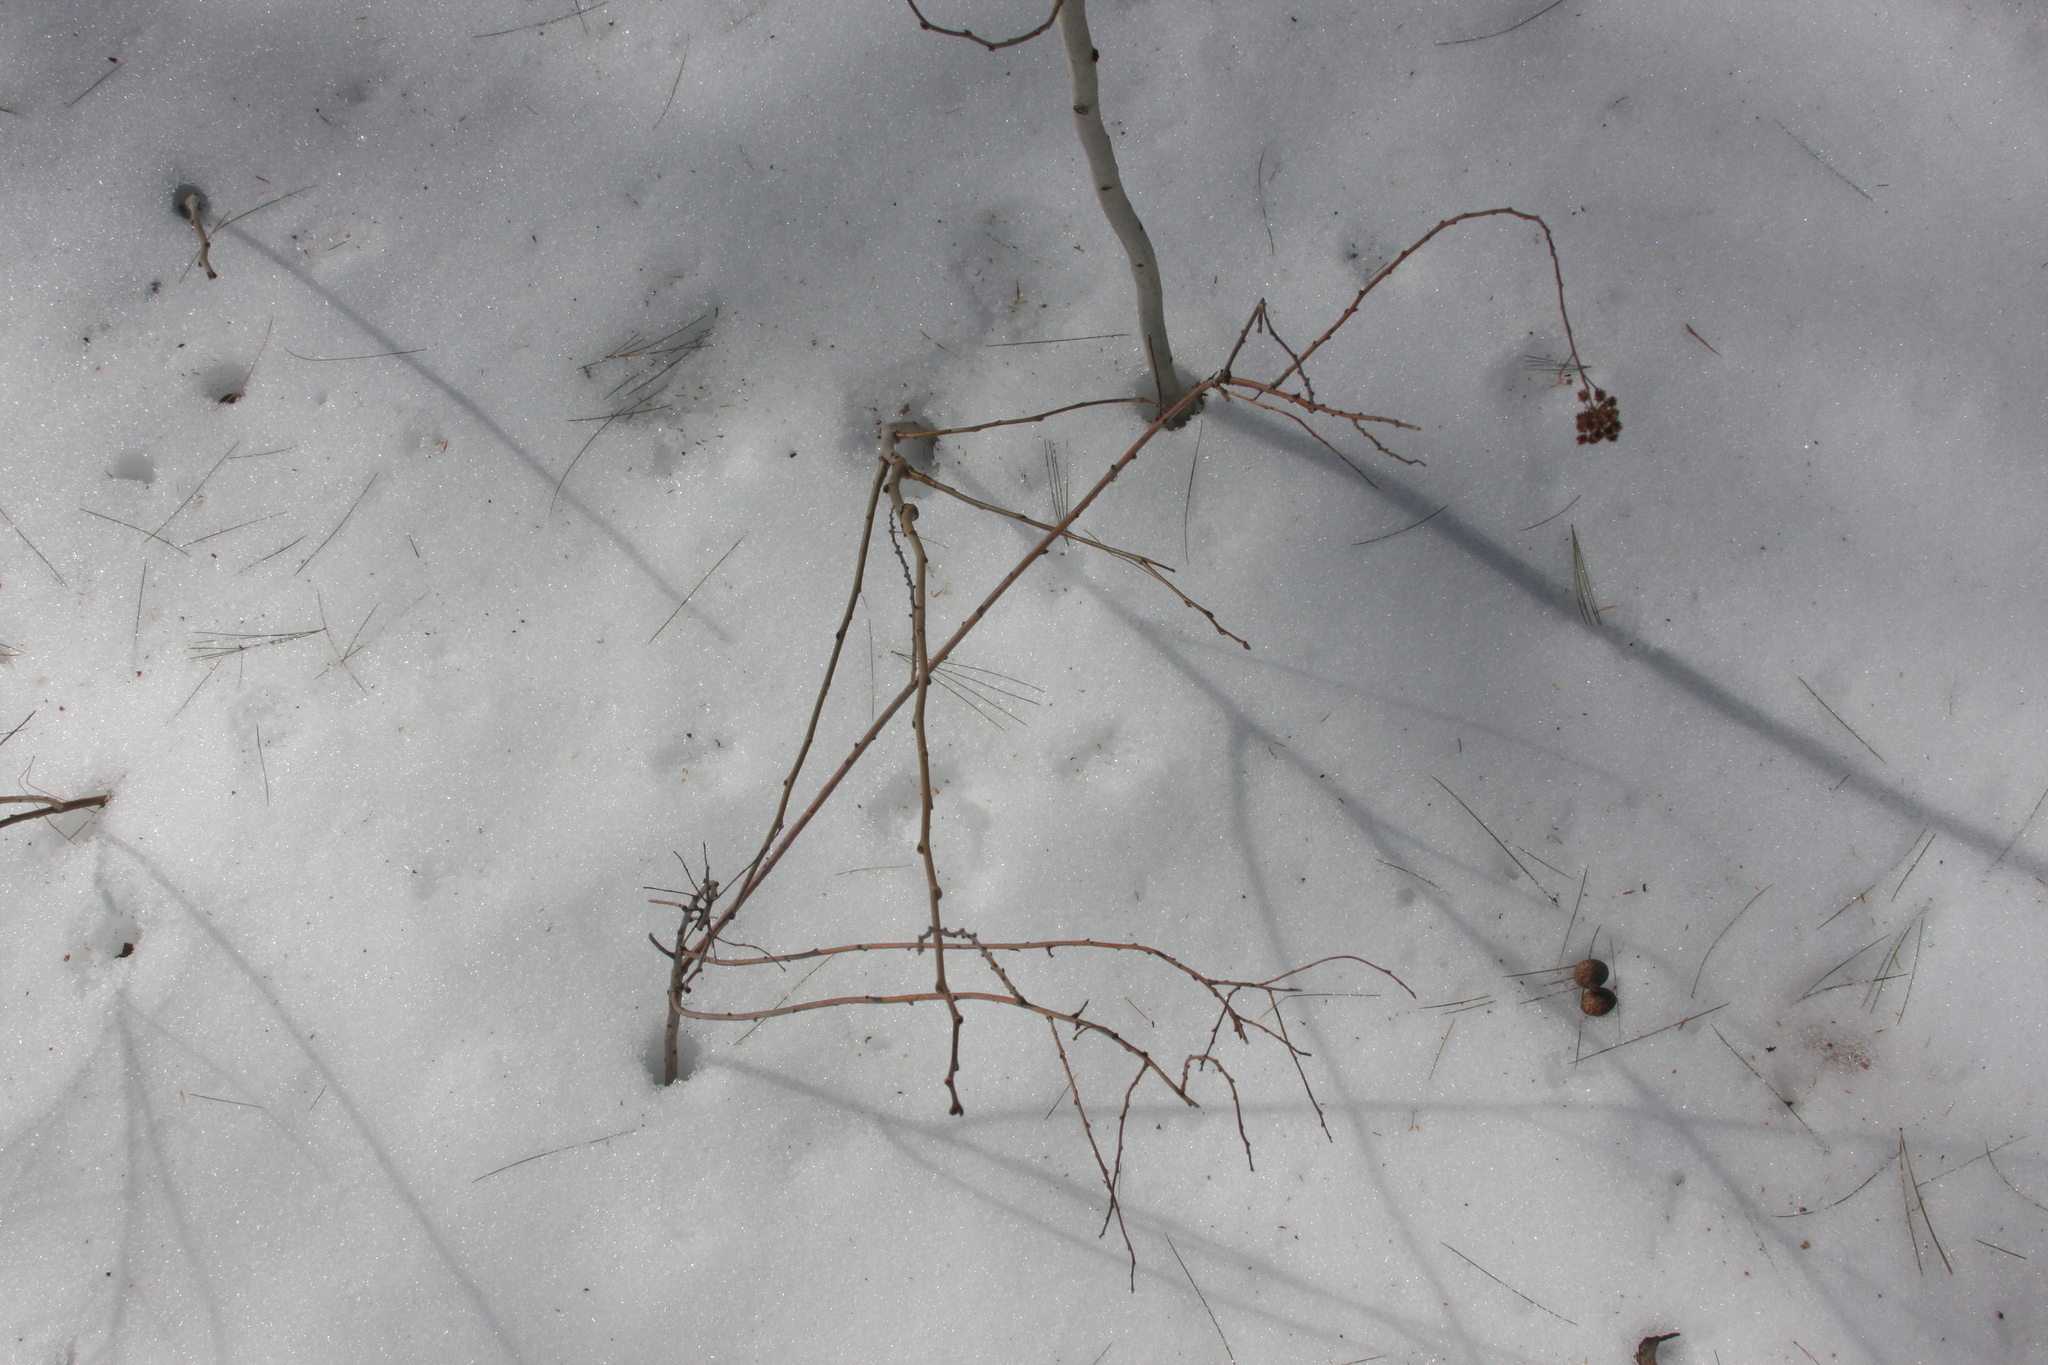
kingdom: Plantae
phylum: Tracheophyta
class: Magnoliopsida
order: Rosales
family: Rosaceae
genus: Spiraea
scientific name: Spiraea alba
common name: Pale bridewort
